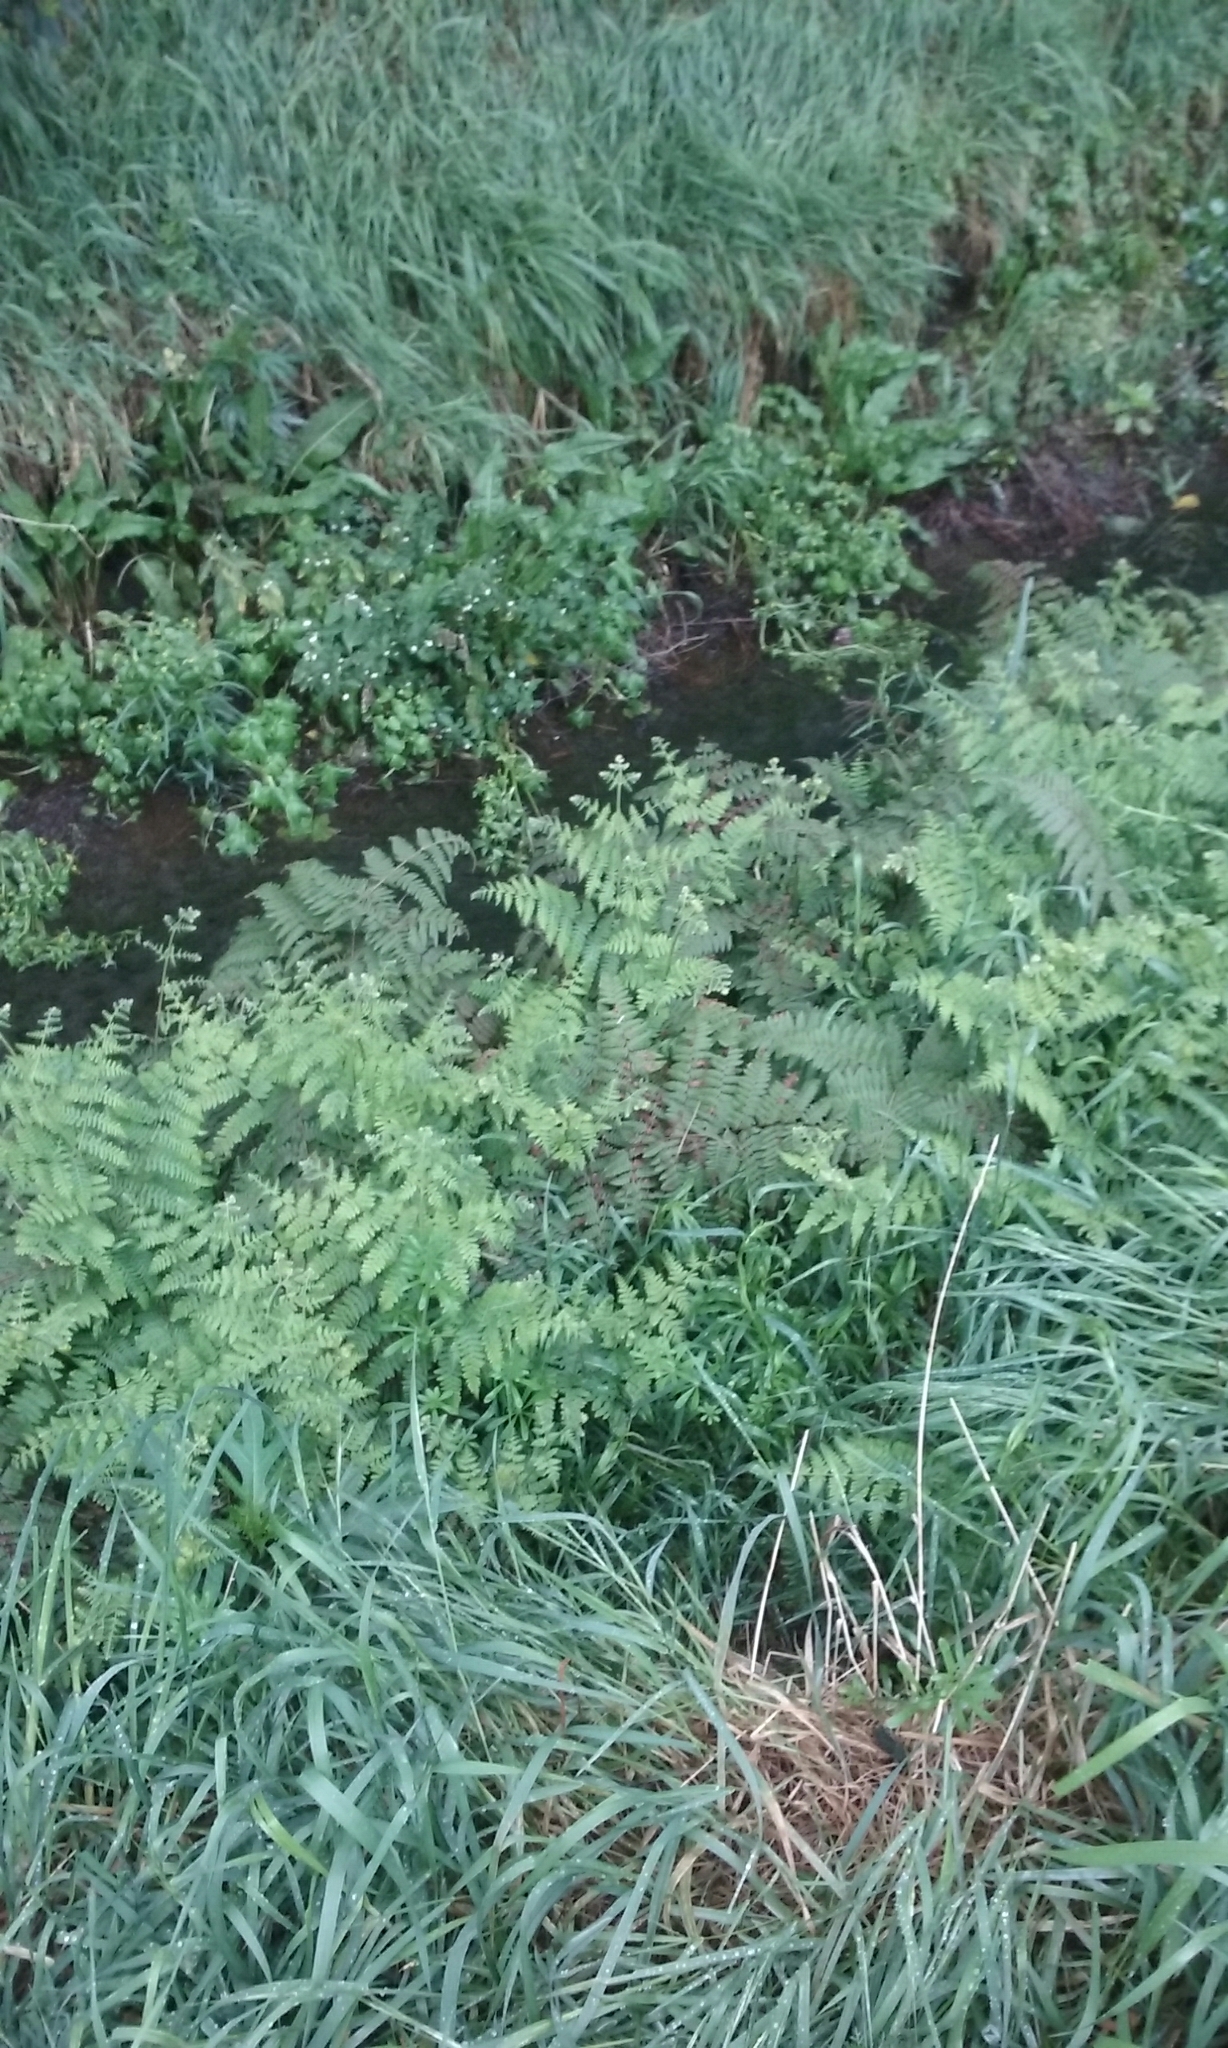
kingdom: Plantae
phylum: Tracheophyta
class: Polypodiopsida
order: Polypodiales
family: Dennstaedtiaceae
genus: Hypolepis
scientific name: Hypolepis ambigua
